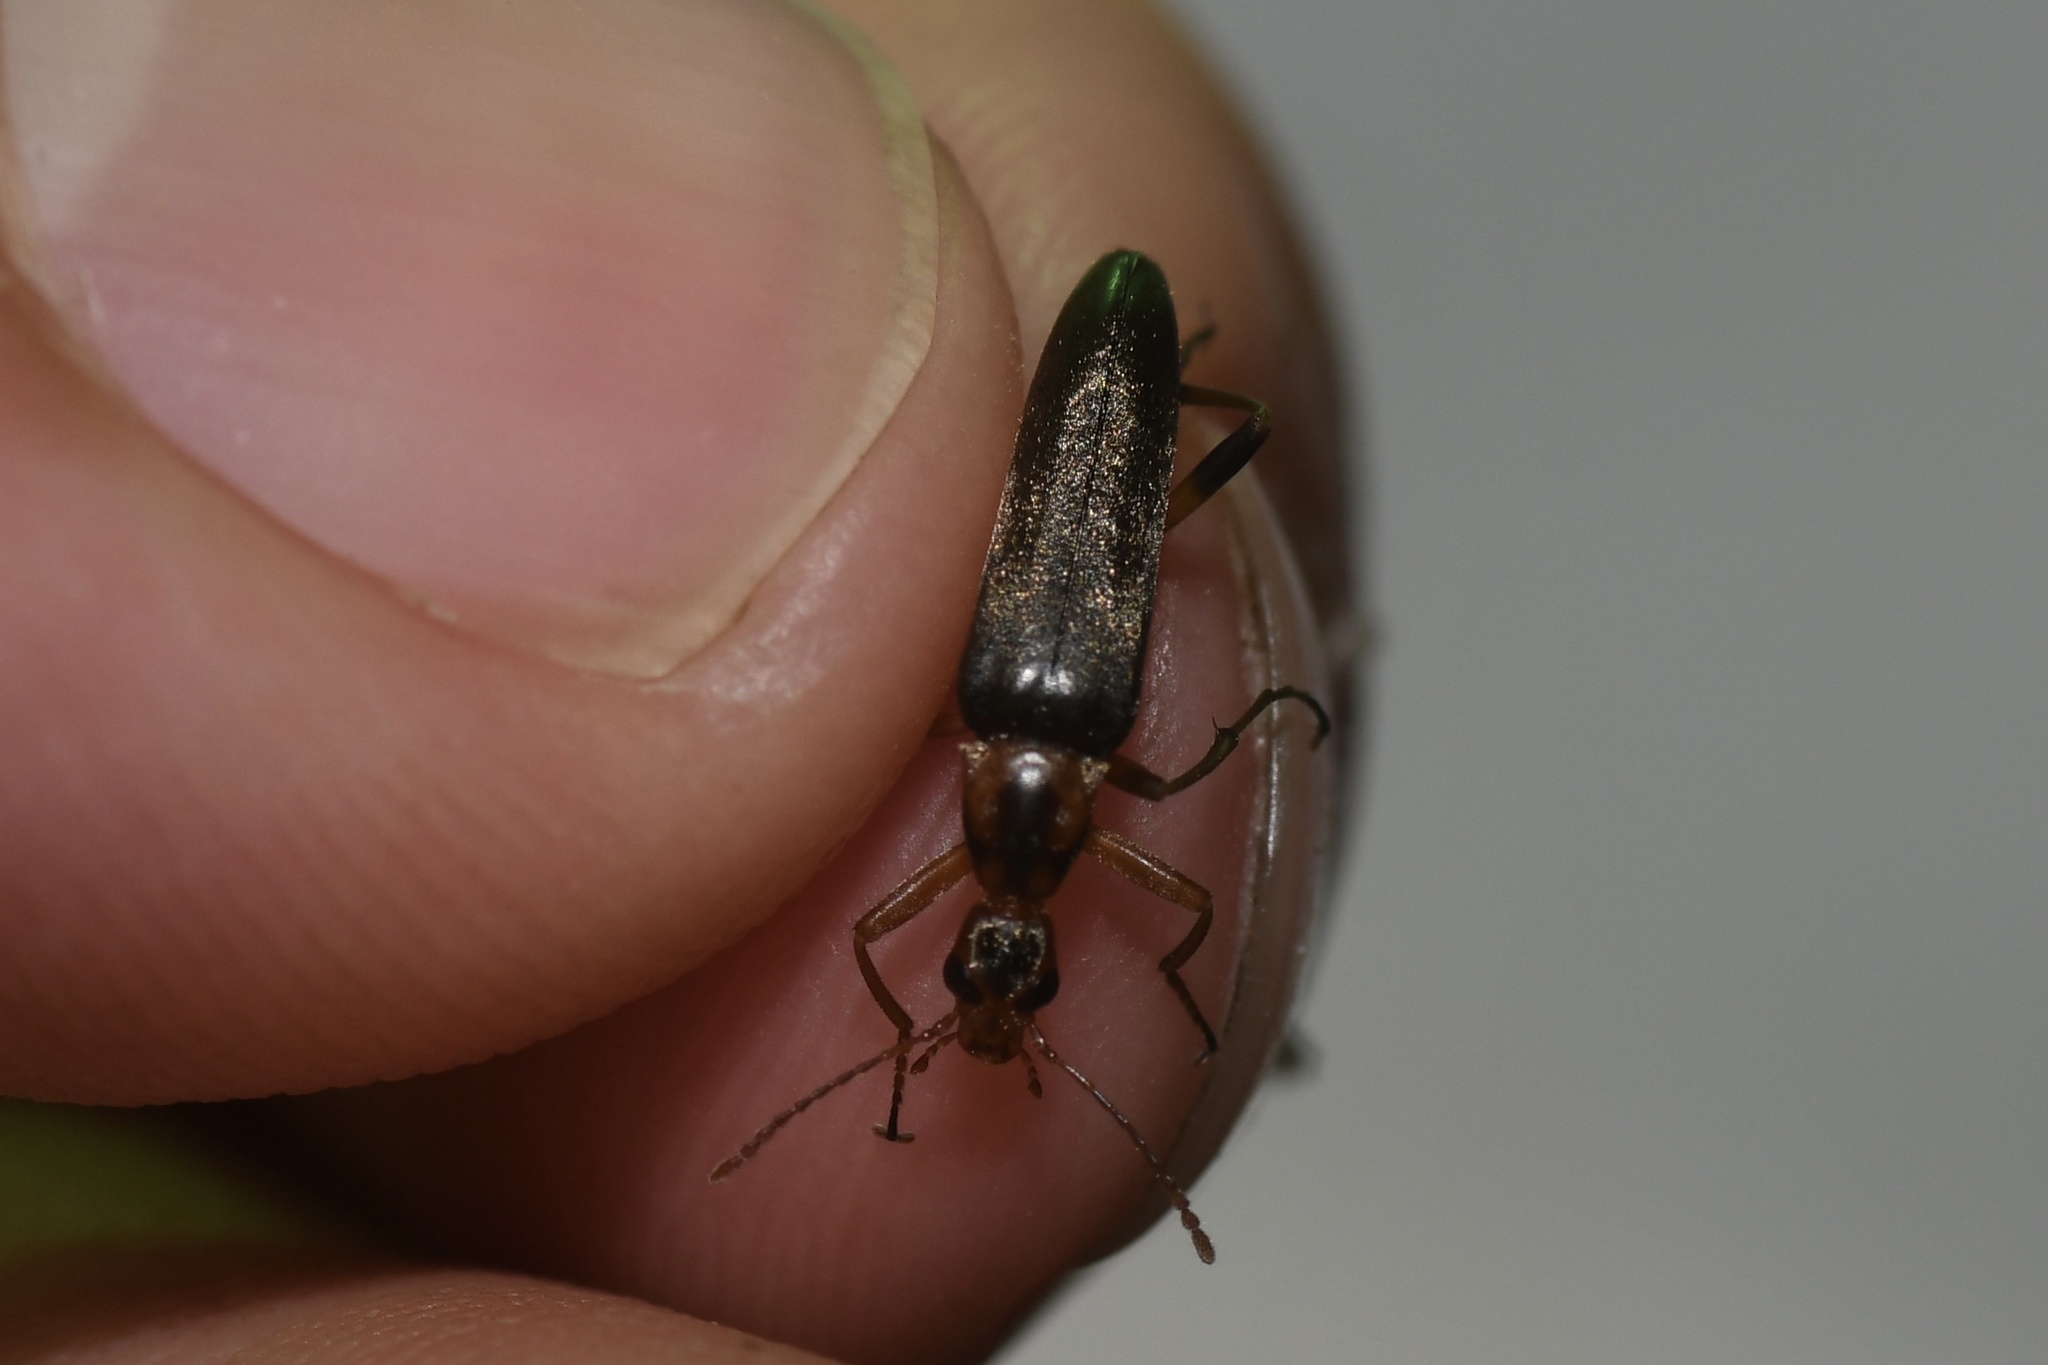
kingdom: Animalia
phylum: Arthropoda
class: Insecta
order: Coleoptera
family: Stenotrachelidae
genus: Cephaloon
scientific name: Cephaloon lepturides
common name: False leptura beetle
